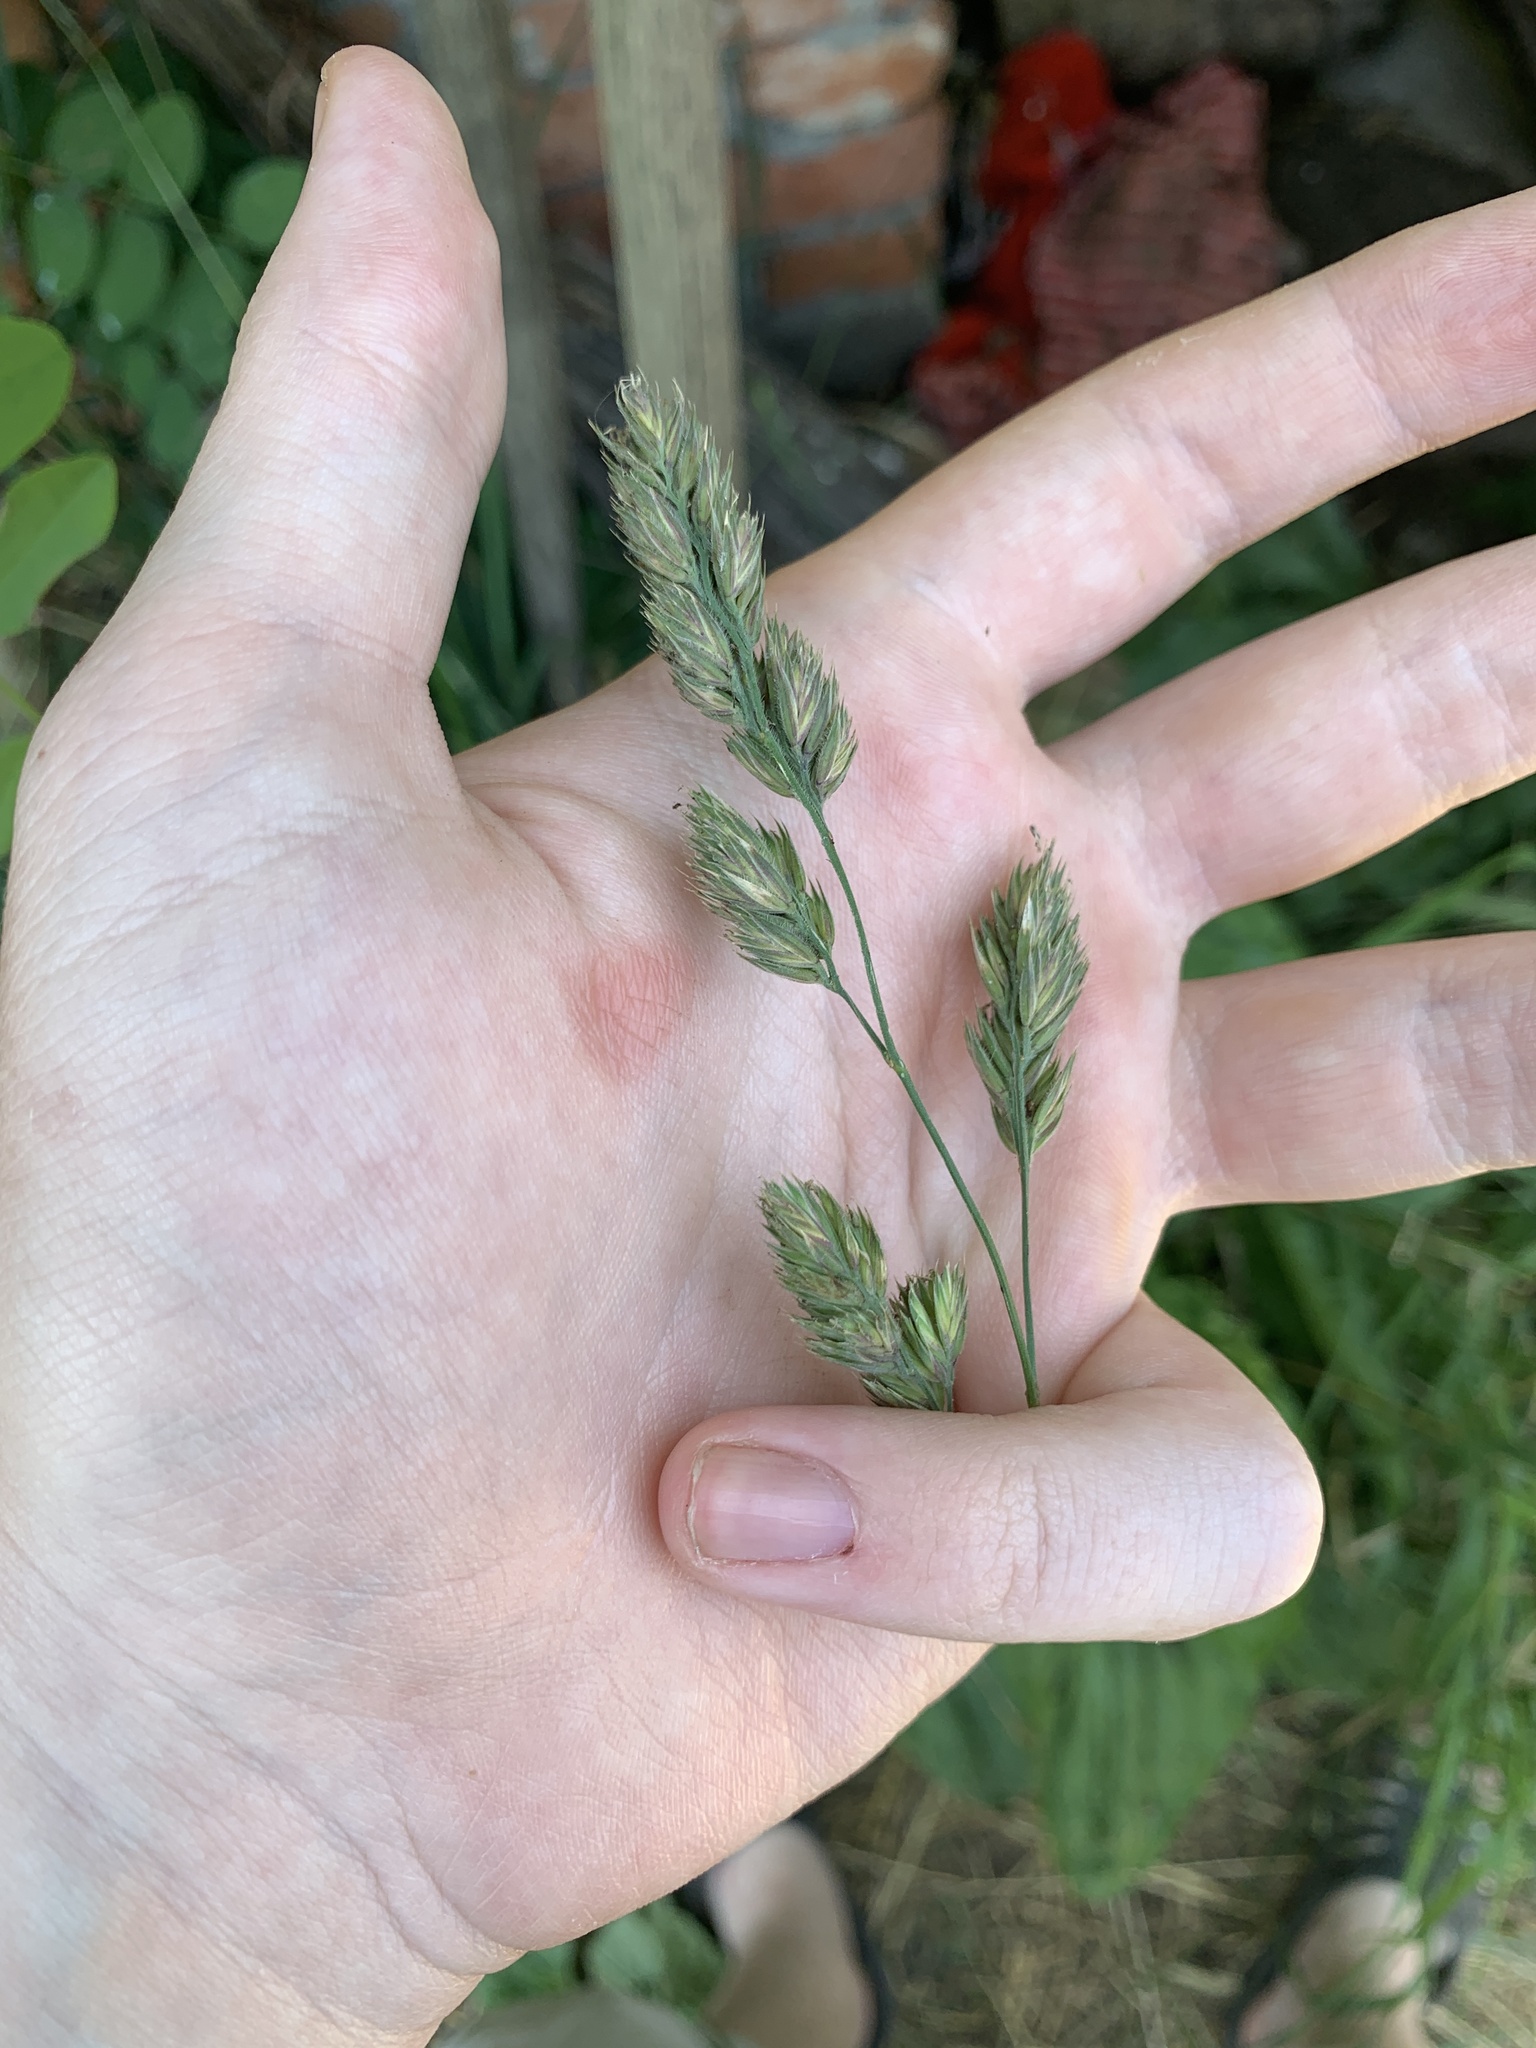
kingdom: Plantae
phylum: Tracheophyta
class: Liliopsida
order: Poales
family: Poaceae
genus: Dactylis
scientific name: Dactylis glomerata
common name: Orchardgrass
